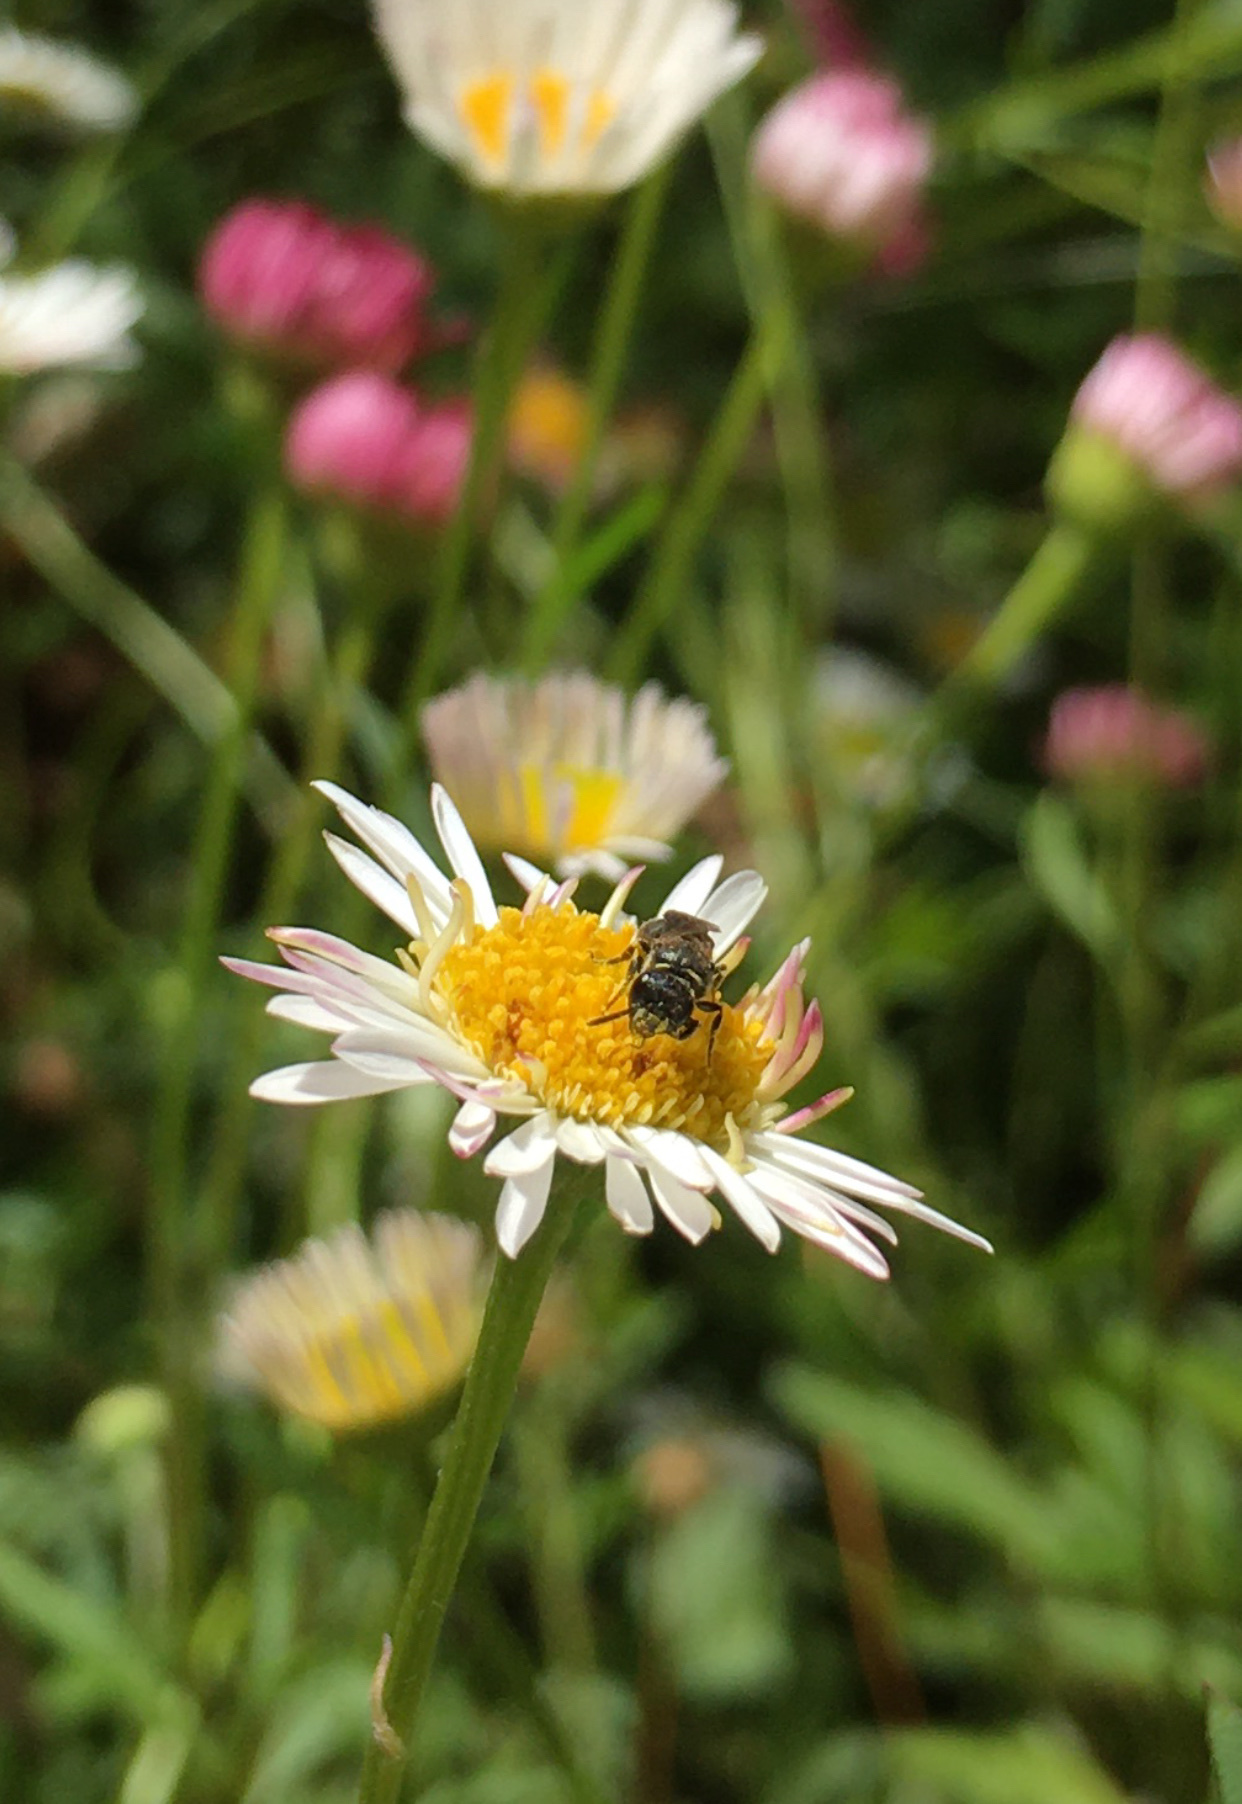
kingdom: Animalia
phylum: Arthropoda
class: Insecta
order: Hymenoptera
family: Colletidae
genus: Hylaeus
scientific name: Hylaeus
